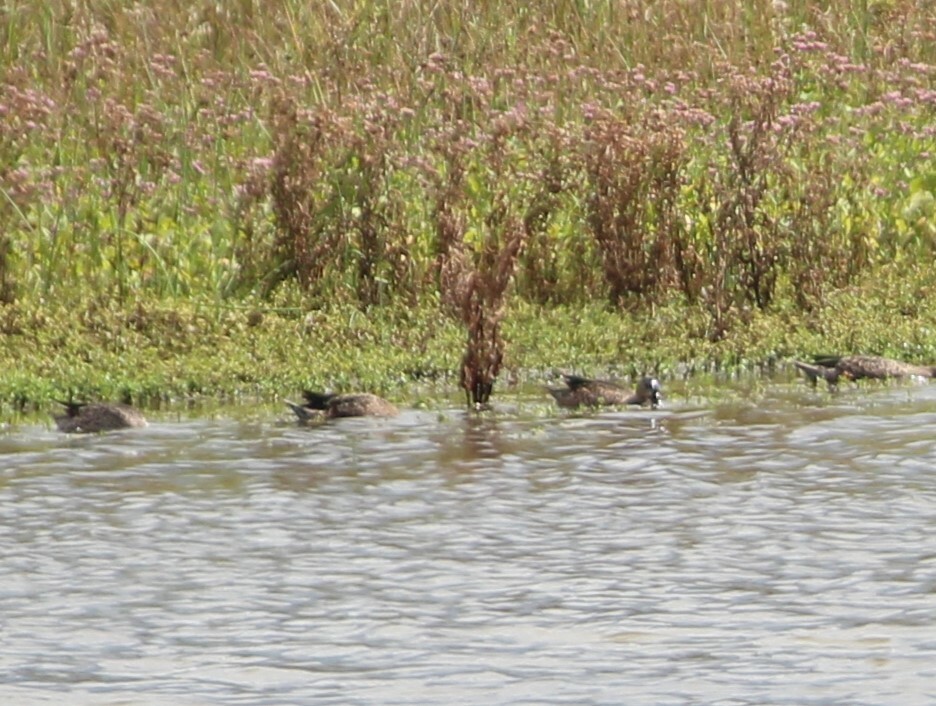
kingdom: Animalia
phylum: Chordata
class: Aves
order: Anseriformes
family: Anatidae
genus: Spatula
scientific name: Spatula discors
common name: Blue-winged teal
